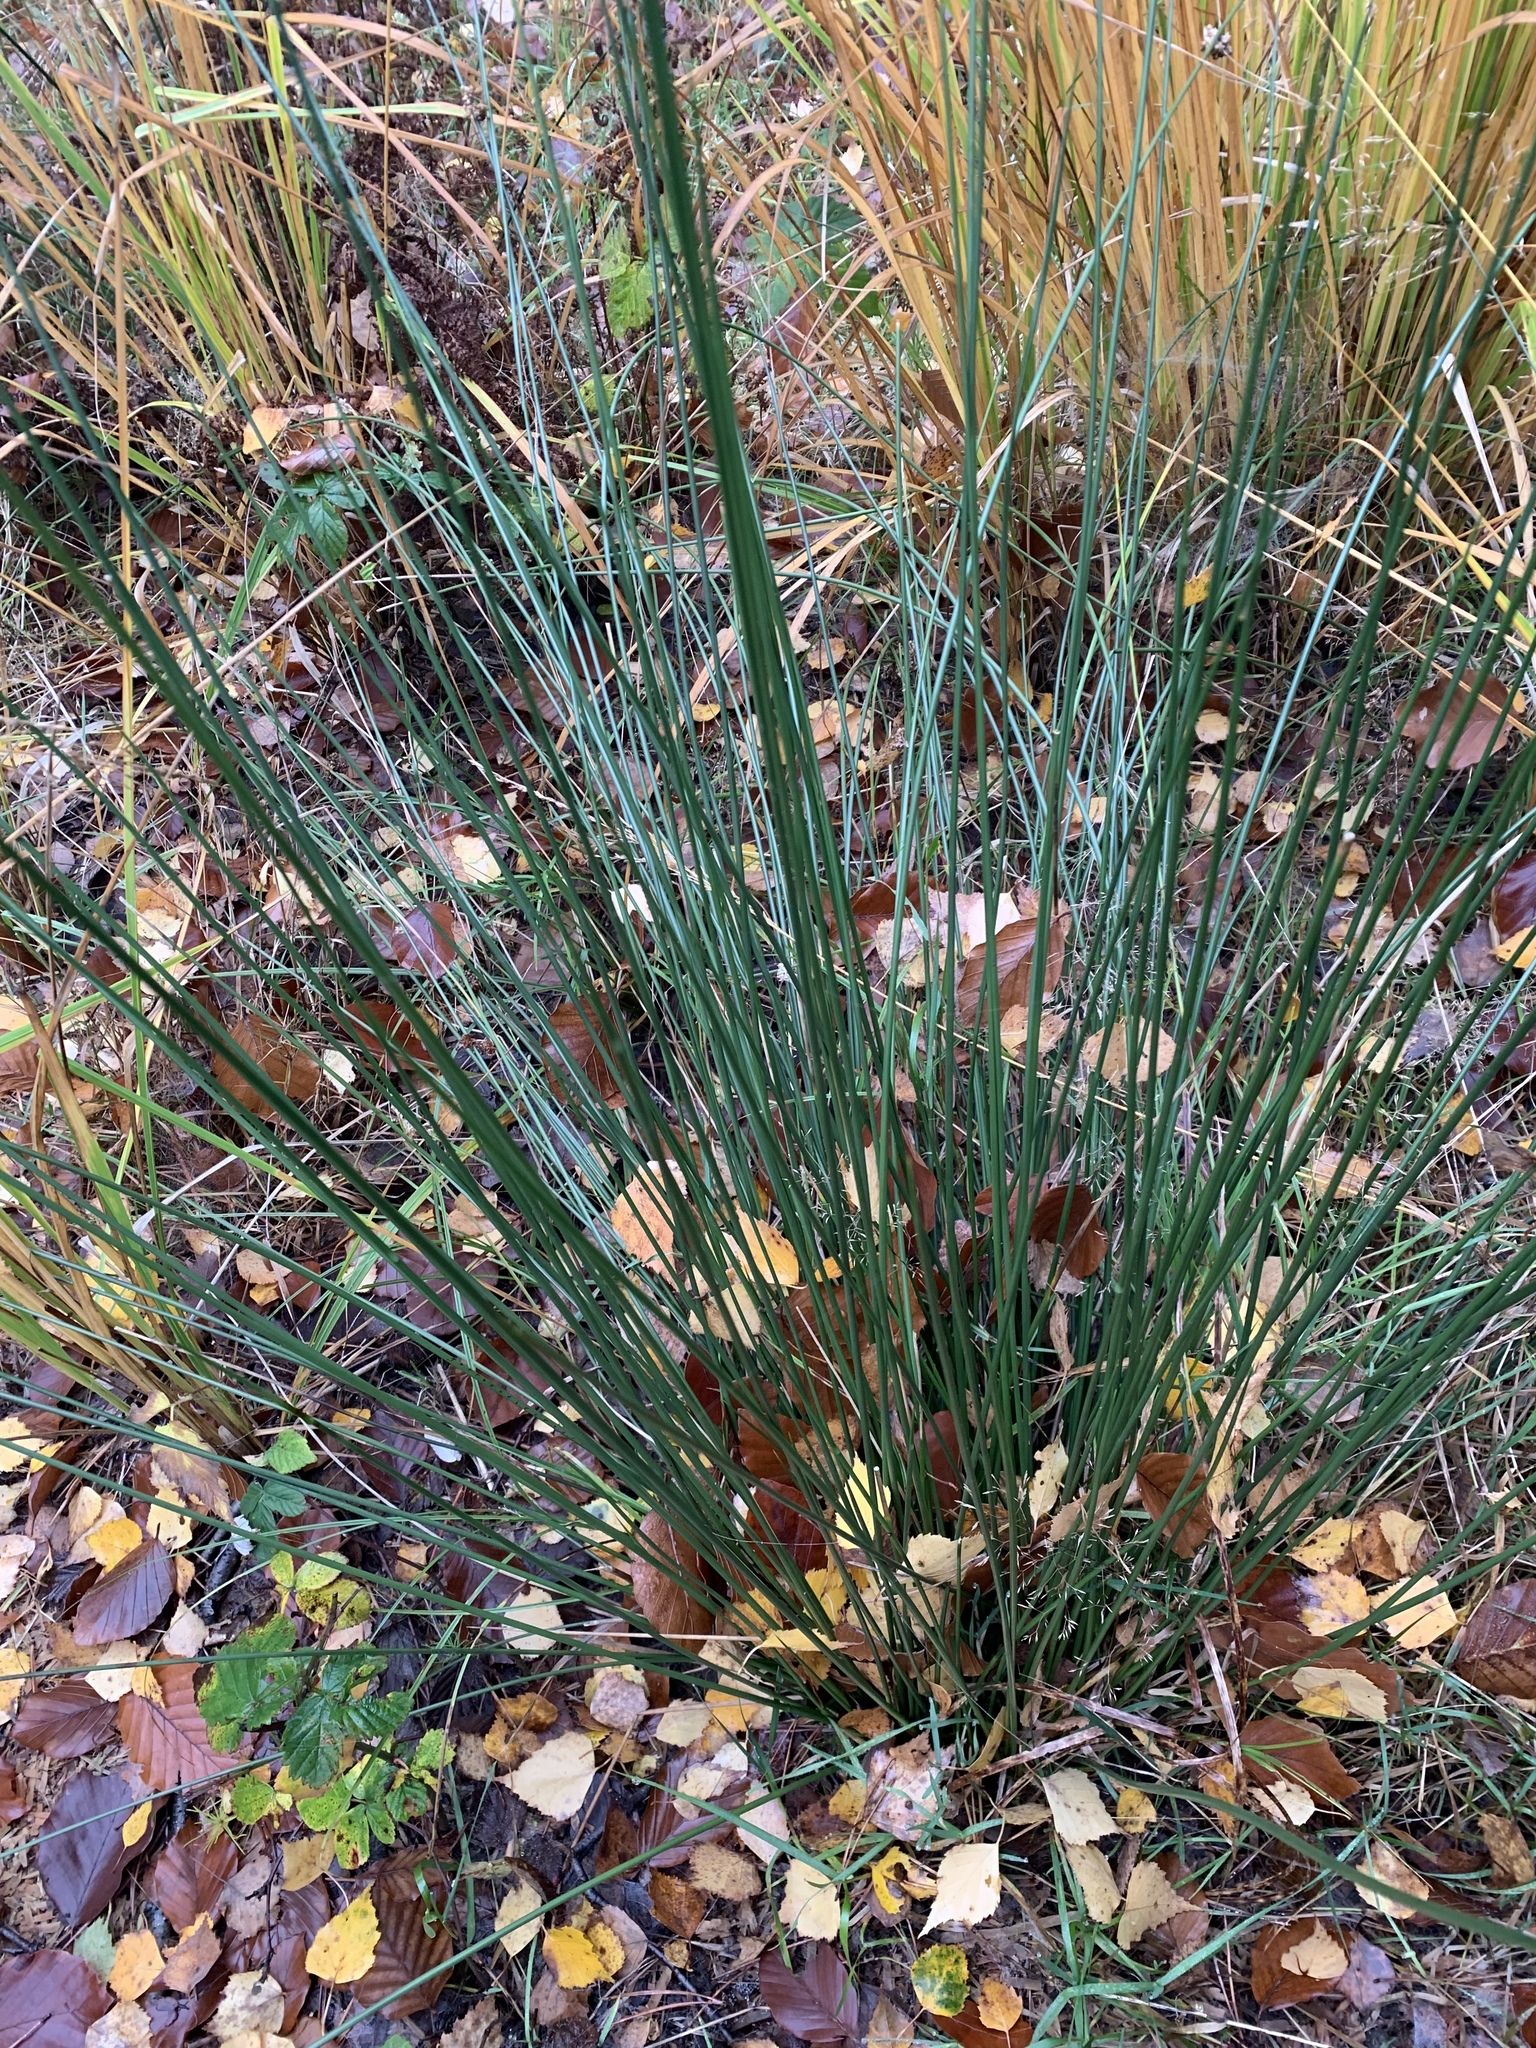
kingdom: Plantae
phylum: Tracheophyta
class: Liliopsida
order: Poales
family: Juncaceae
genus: Juncus
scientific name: Juncus effusus
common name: Soft rush
